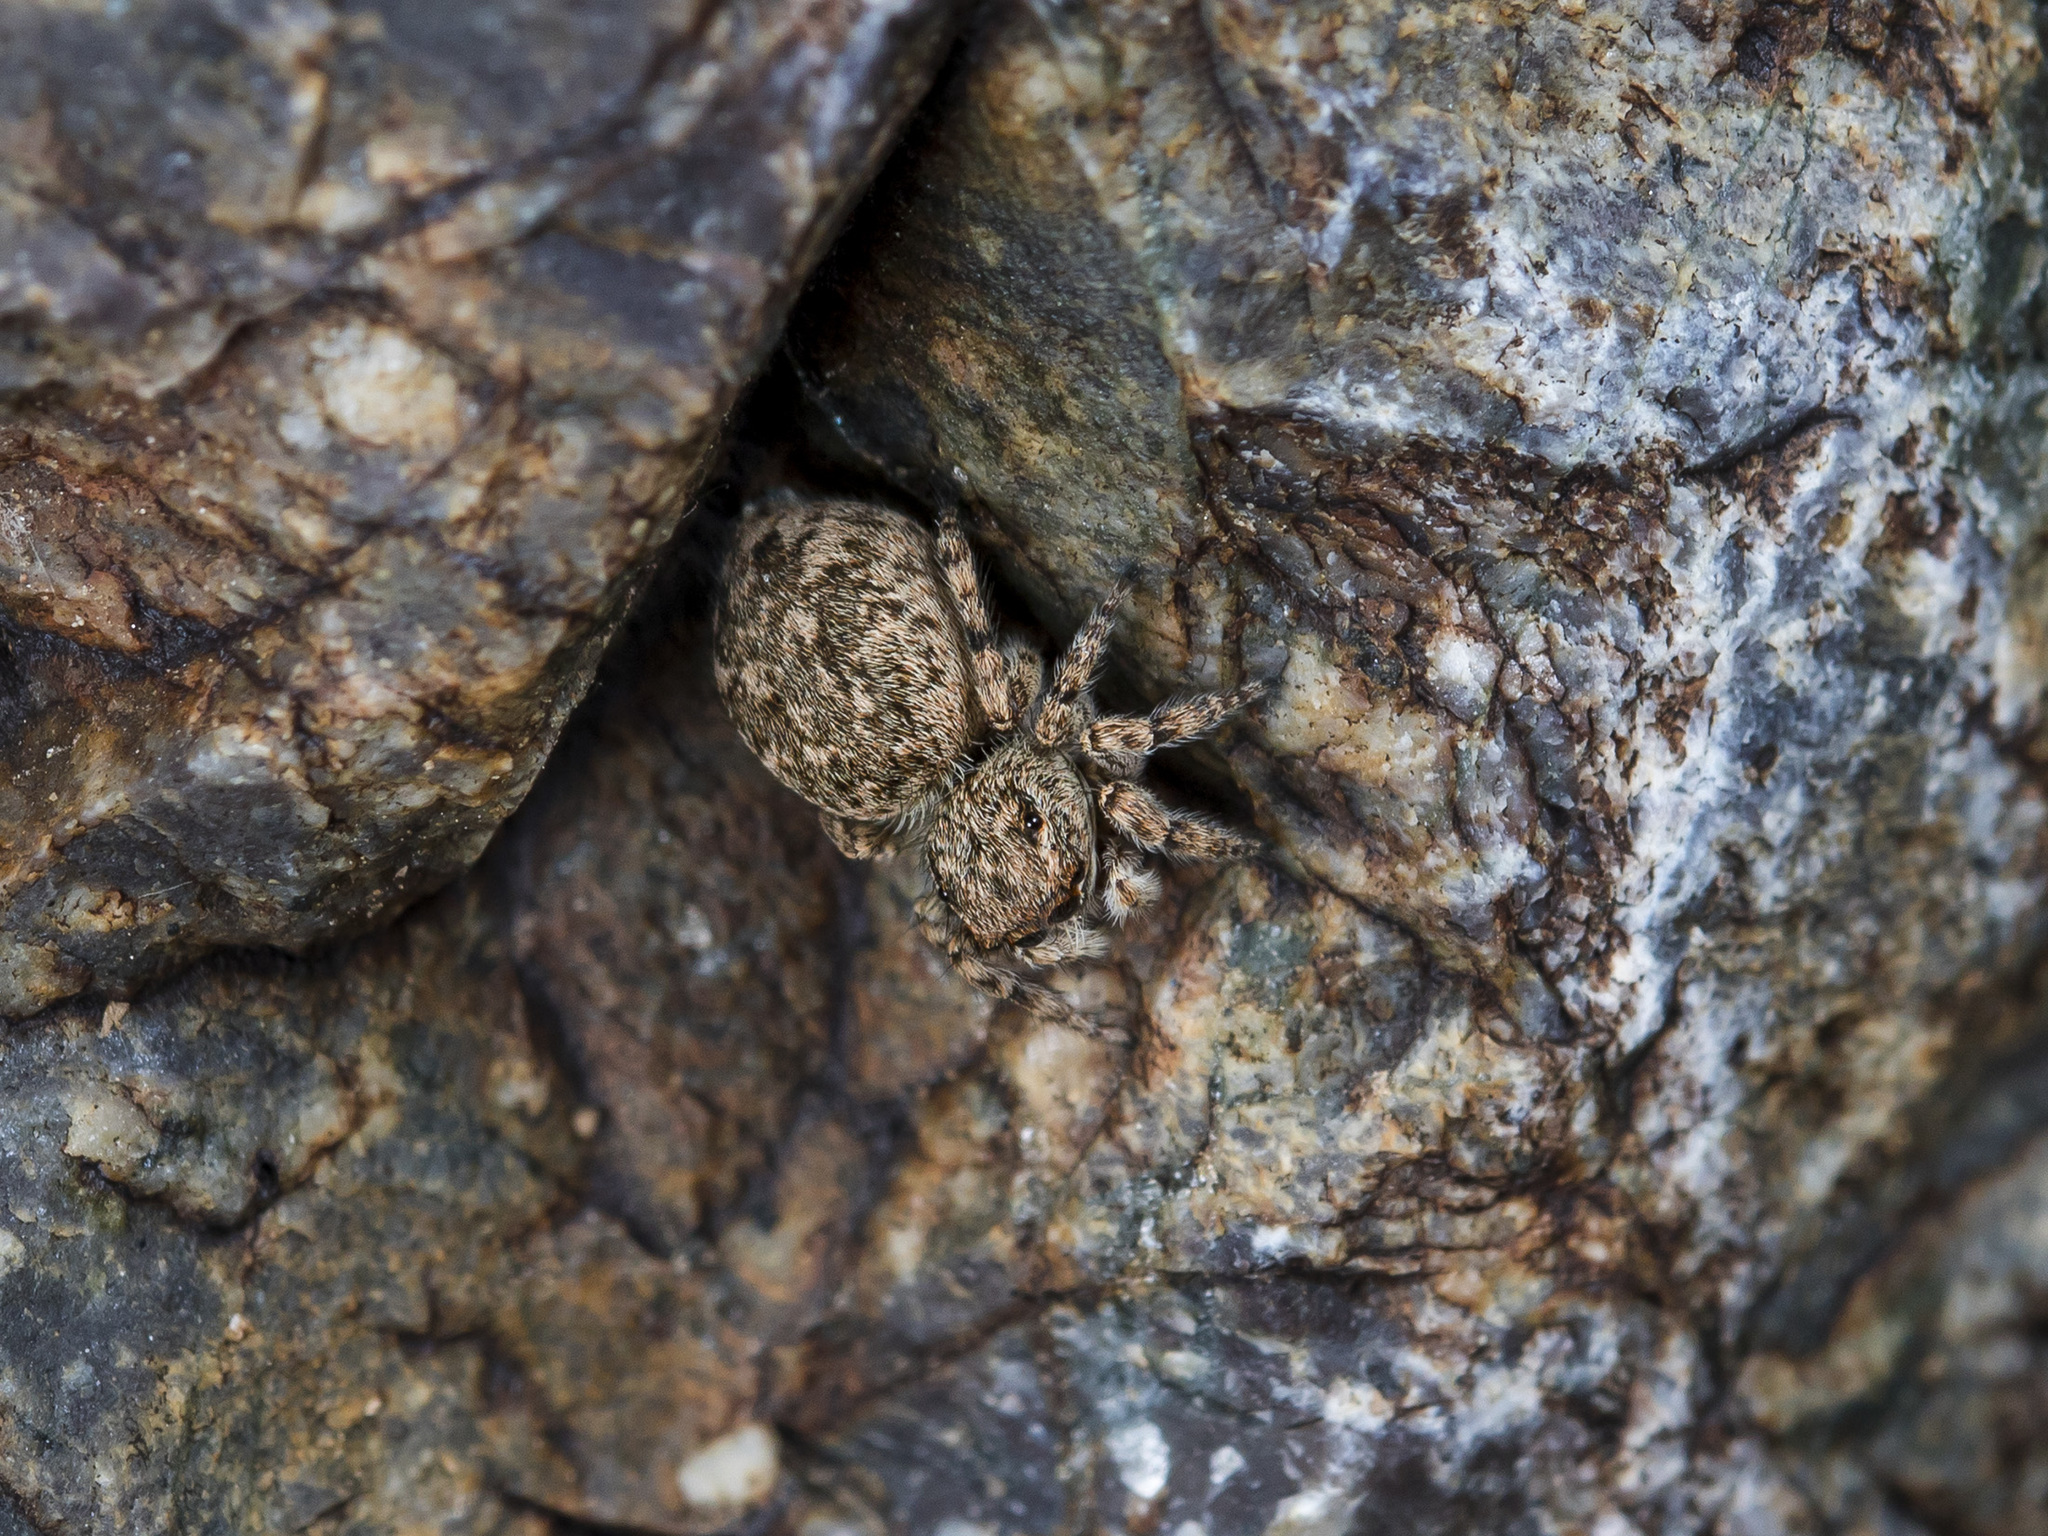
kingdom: Animalia
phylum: Arthropoda
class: Arachnida
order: Araneae
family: Salticidae
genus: Attulus
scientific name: Attulus avocator
